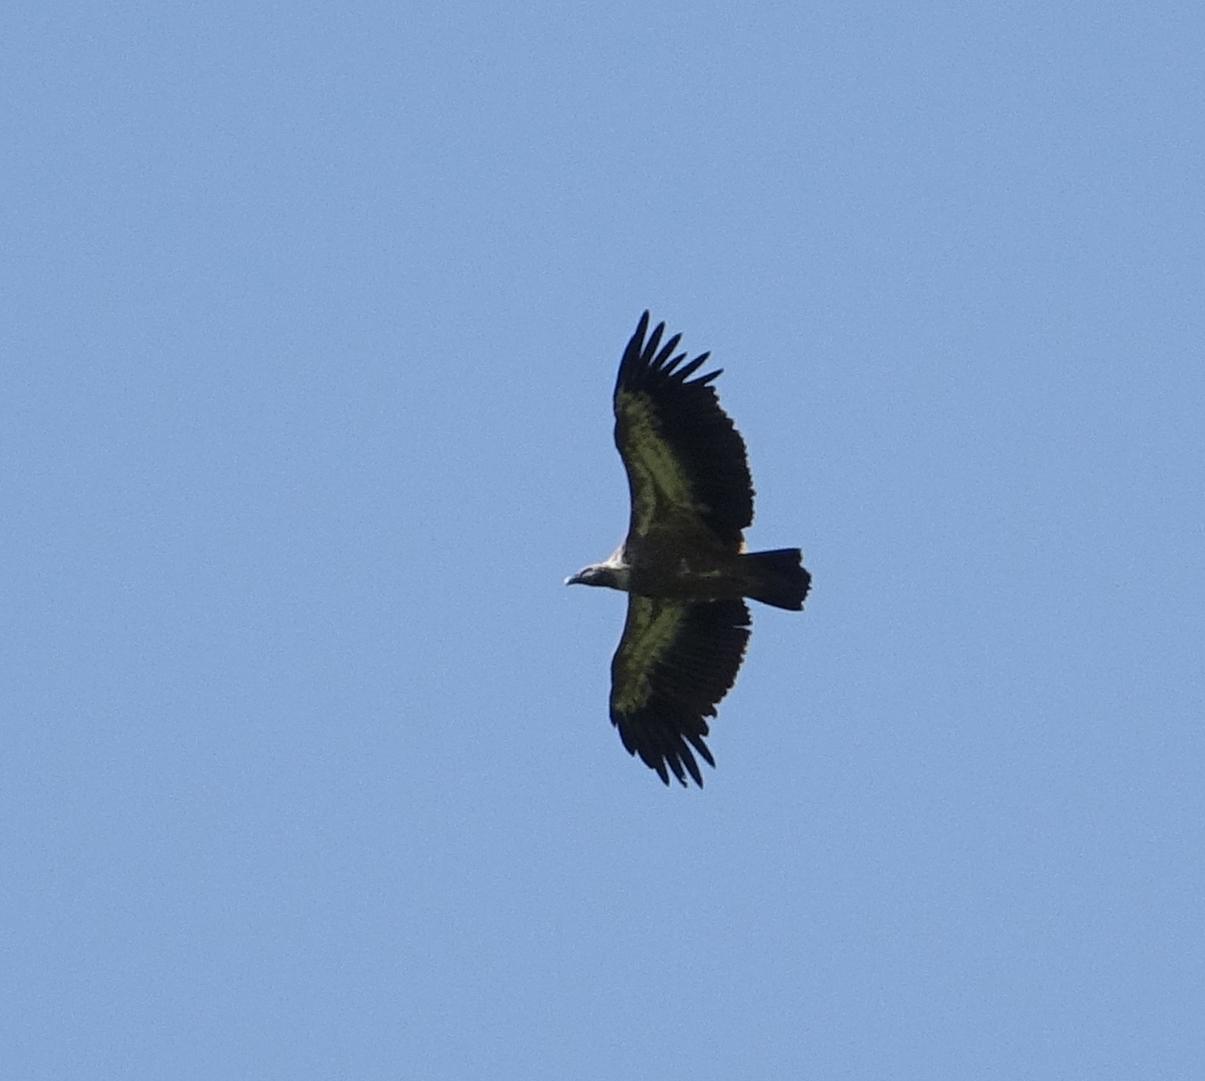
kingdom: Animalia
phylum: Chordata
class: Aves
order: Accipitriformes
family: Accipitridae
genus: Gyps
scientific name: Gyps fulvus
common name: Griffon vulture
